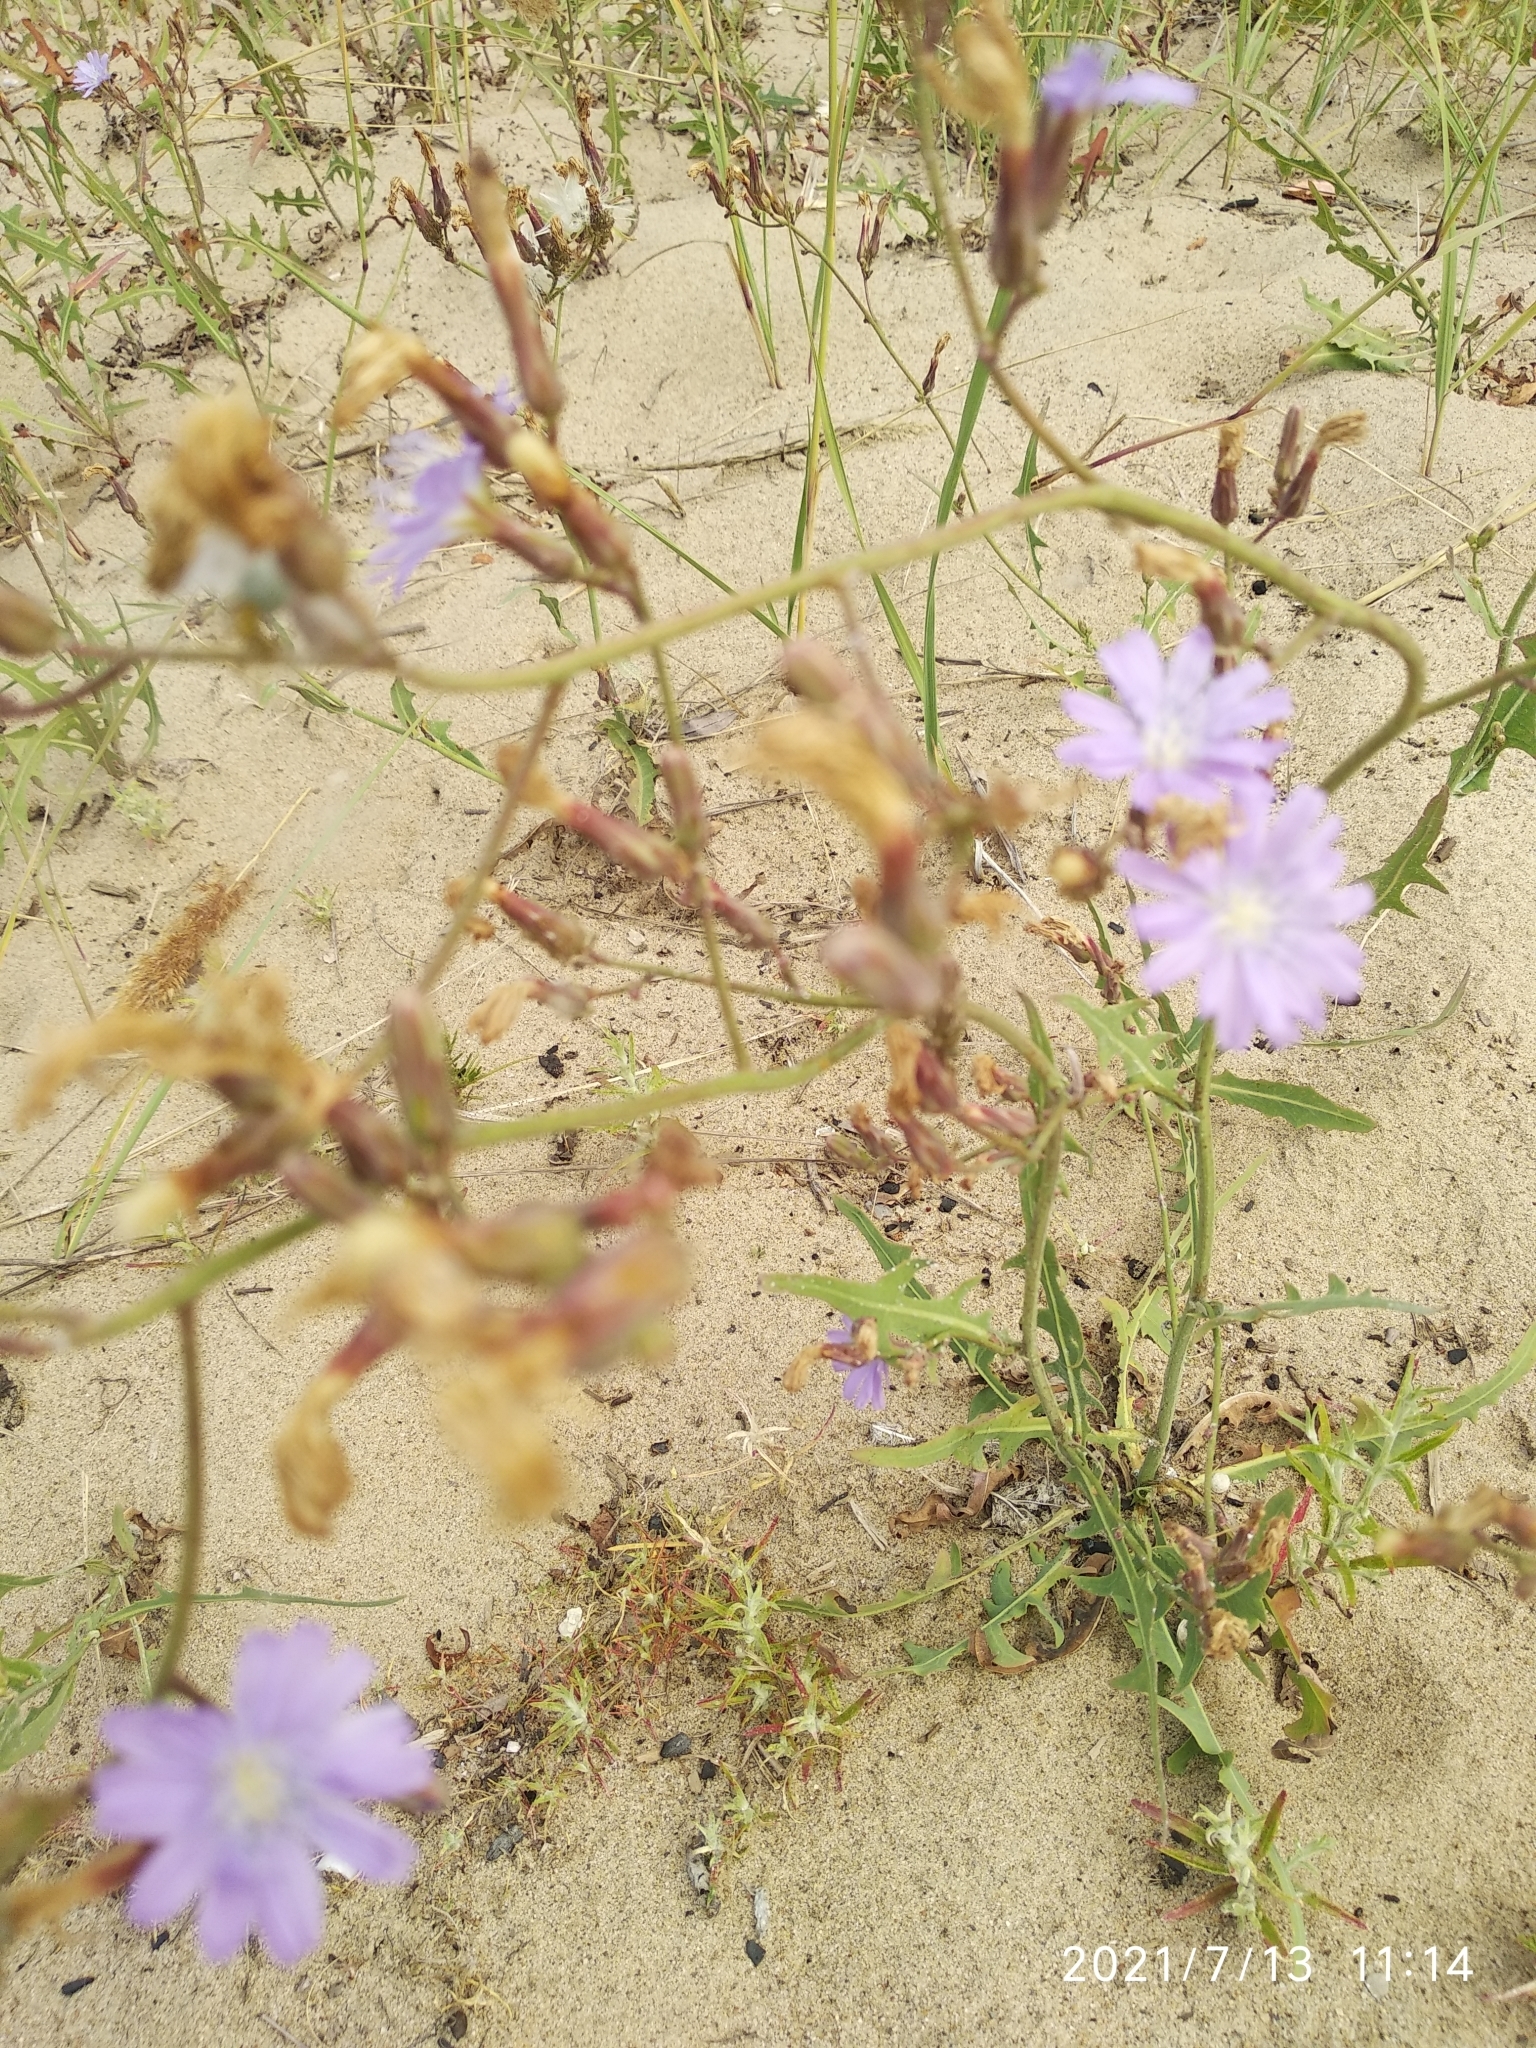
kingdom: Plantae
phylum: Tracheophyta
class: Magnoliopsida
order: Asterales
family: Asteraceae
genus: Lactuca
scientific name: Lactuca tatarica
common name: Blue lettuce
